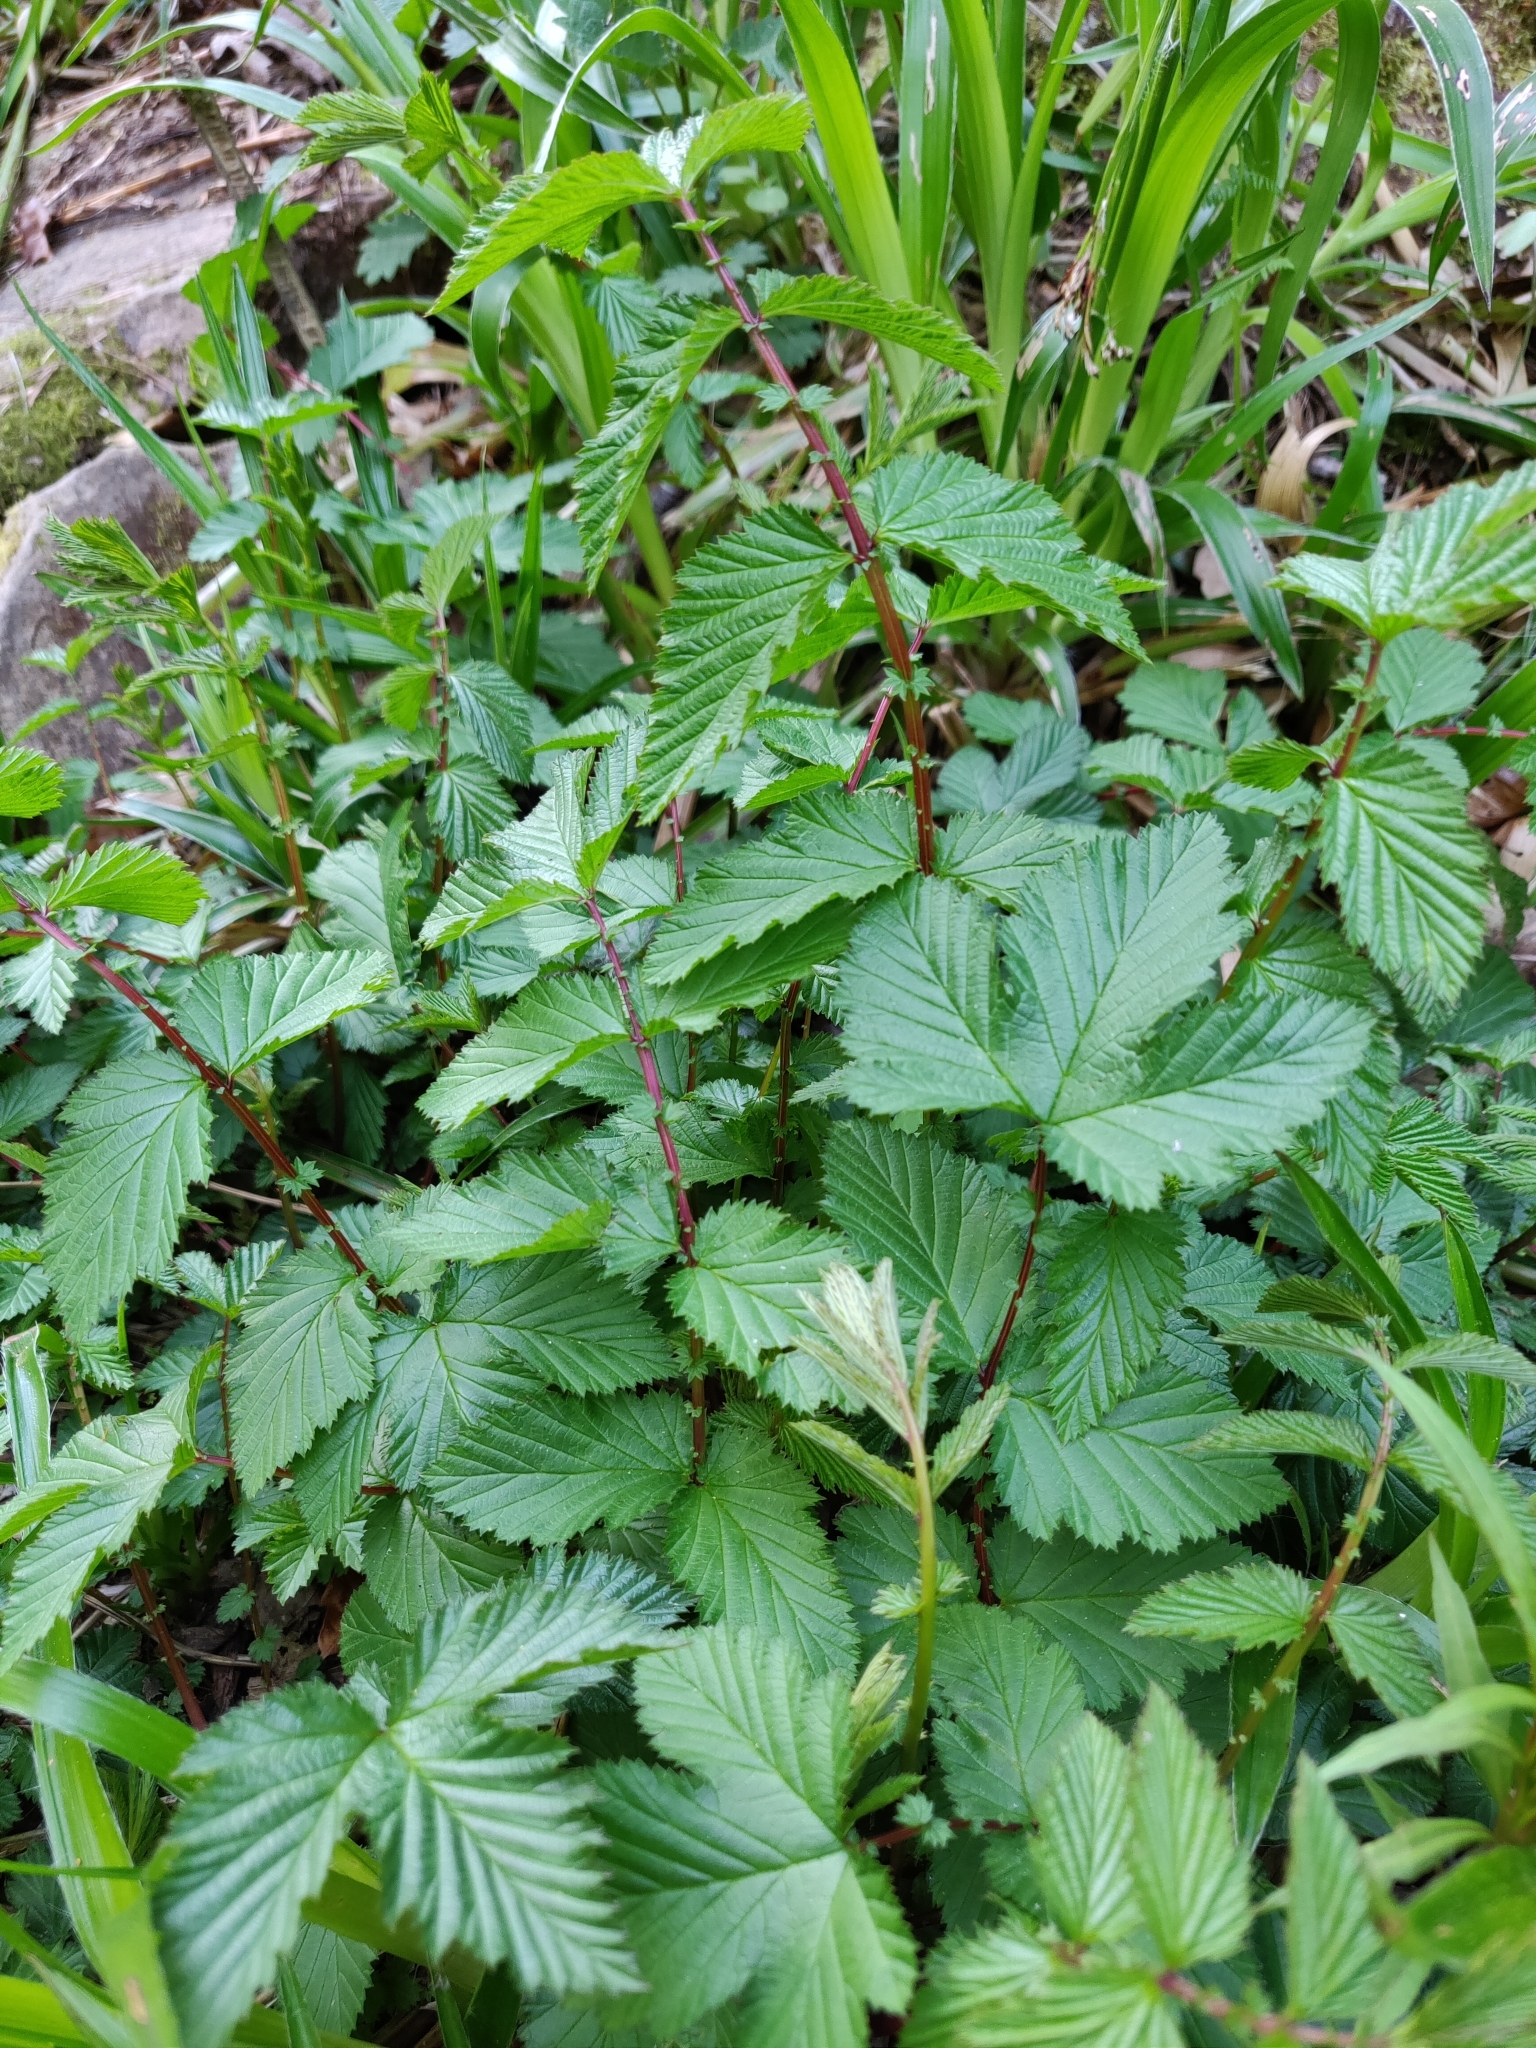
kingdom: Plantae
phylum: Tracheophyta
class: Magnoliopsida
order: Rosales
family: Rosaceae
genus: Filipendula
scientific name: Filipendula ulmaria
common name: Meadowsweet
